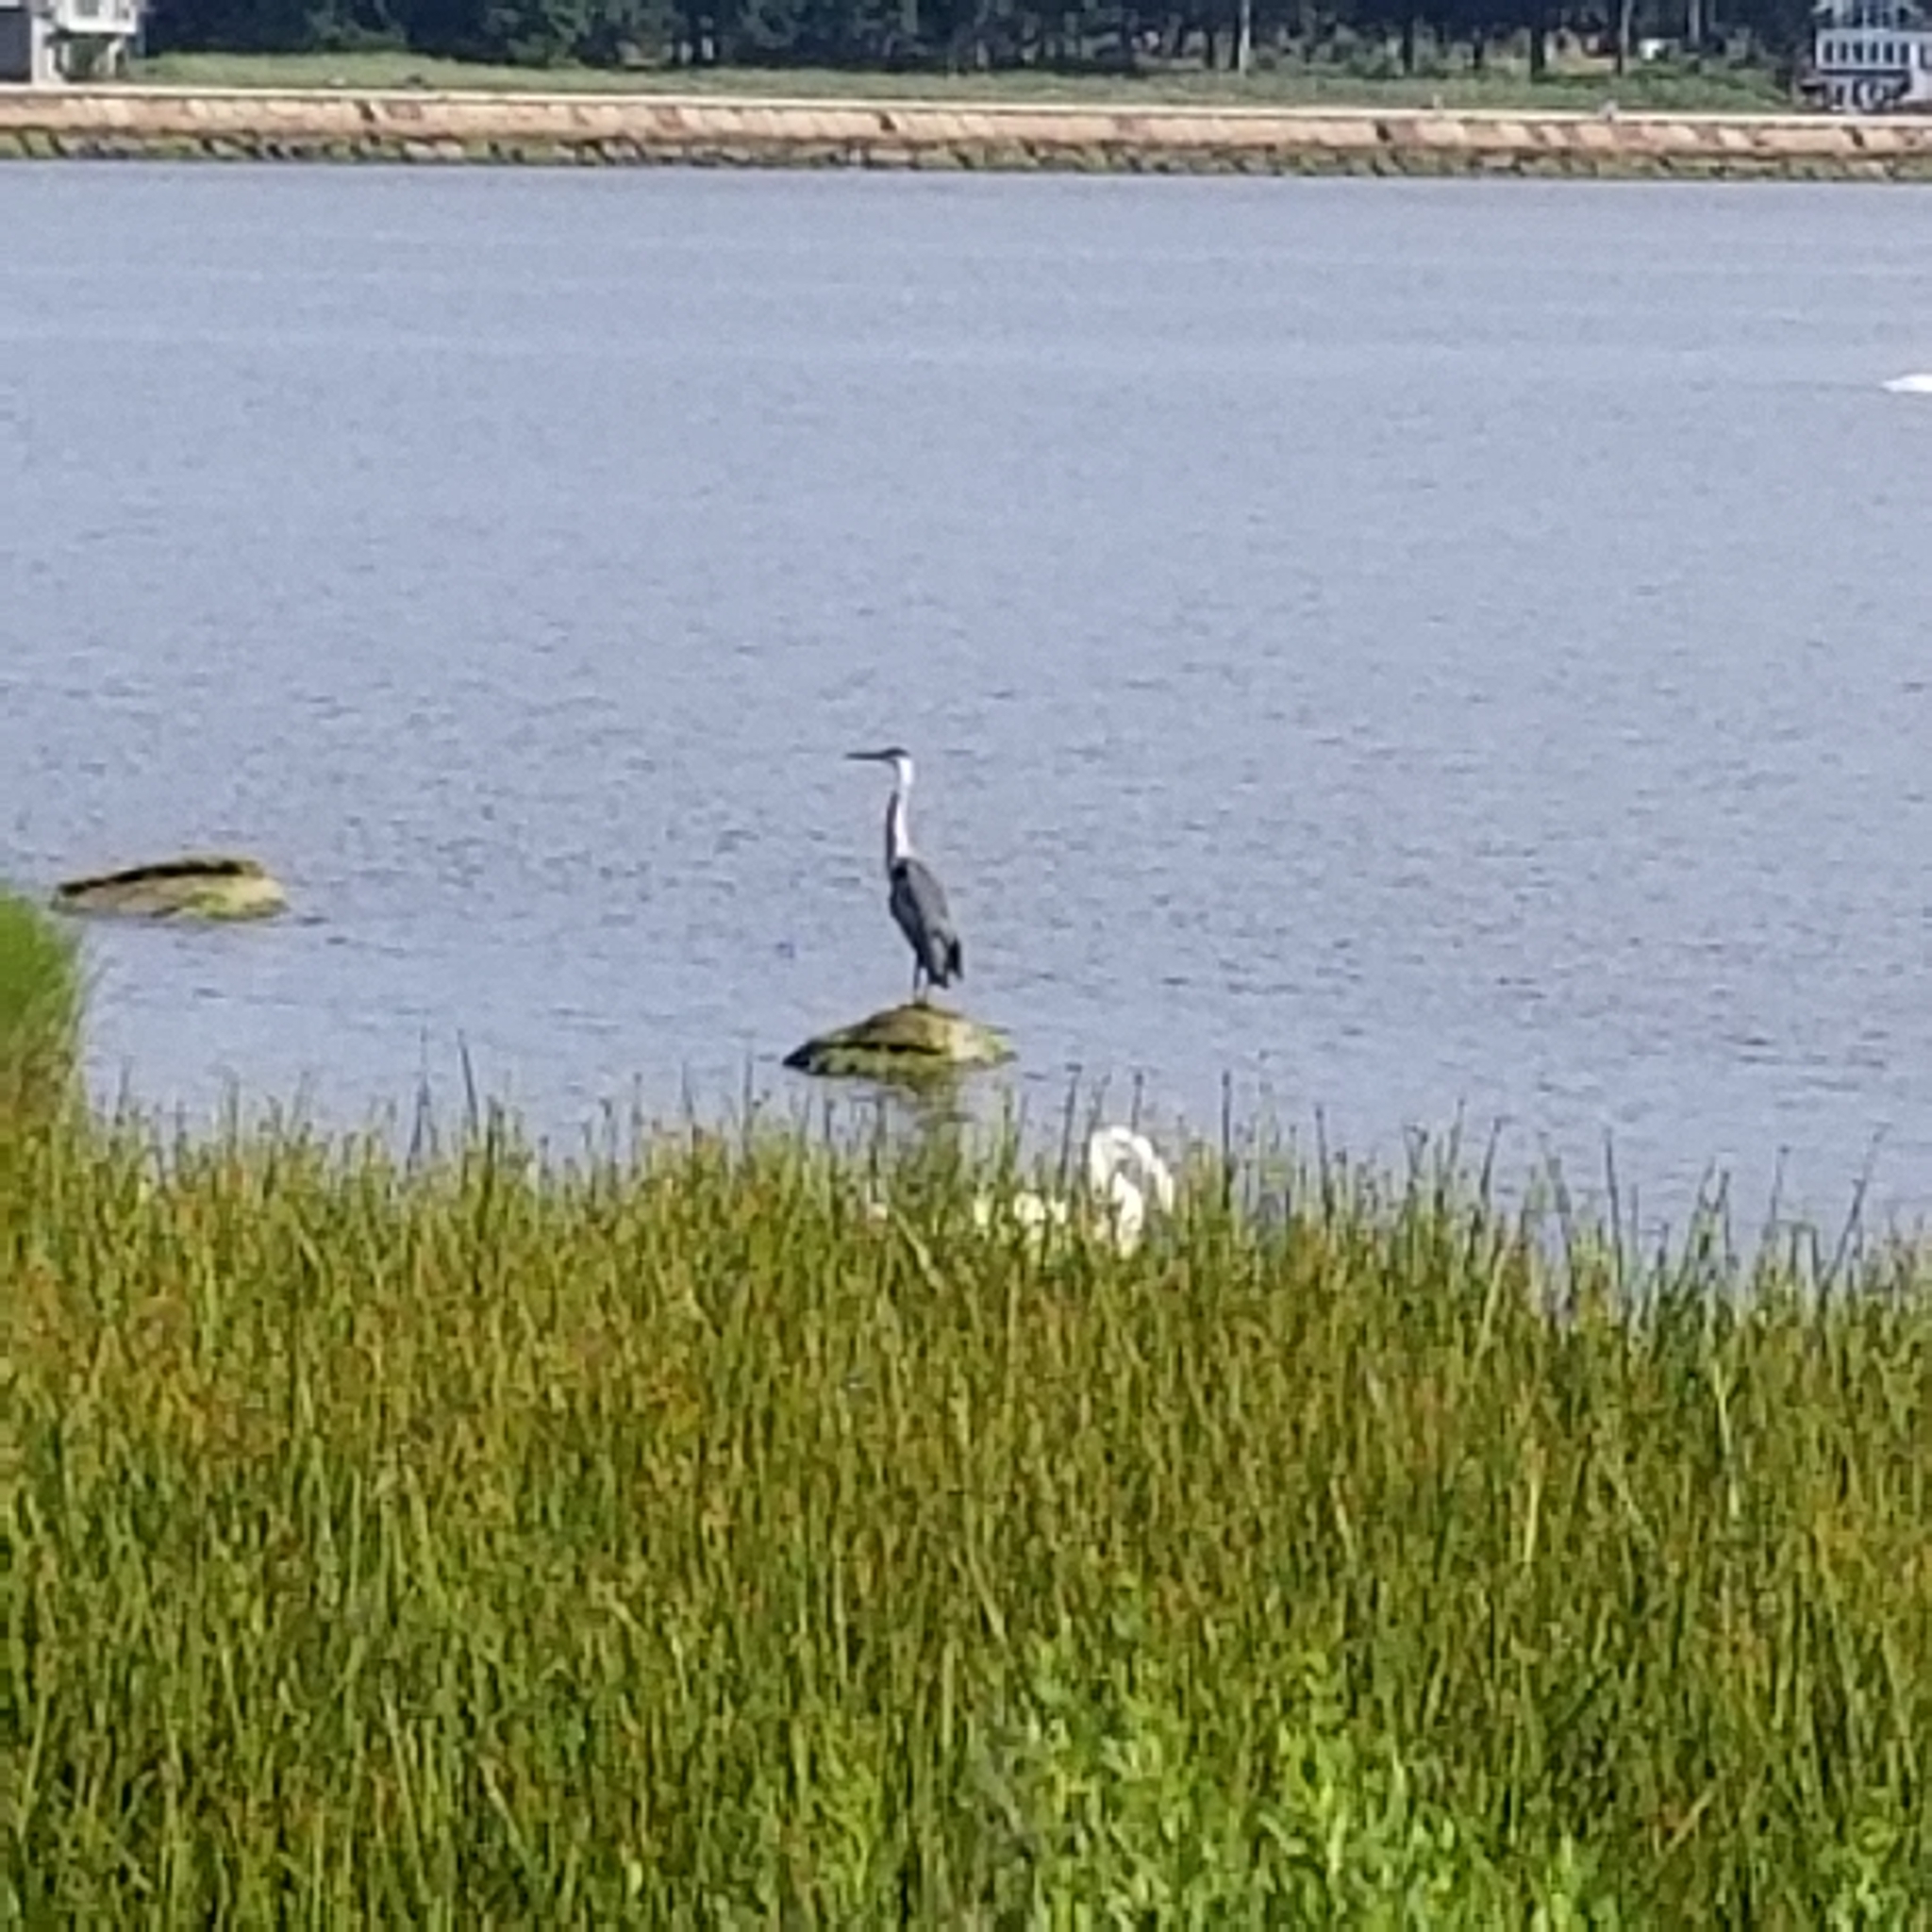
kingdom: Animalia
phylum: Chordata
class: Aves
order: Pelecaniformes
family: Ardeidae
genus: Ardea
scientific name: Ardea herodias
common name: Great blue heron
